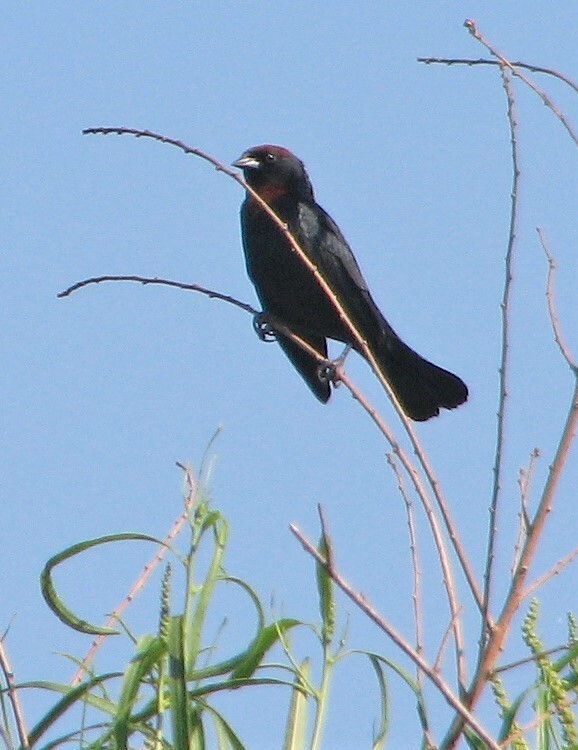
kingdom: Animalia
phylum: Chordata
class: Aves
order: Passeriformes
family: Icteridae
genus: Chrysomus
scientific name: Chrysomus ruficapillus
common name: Chestnut-capped blackbird
